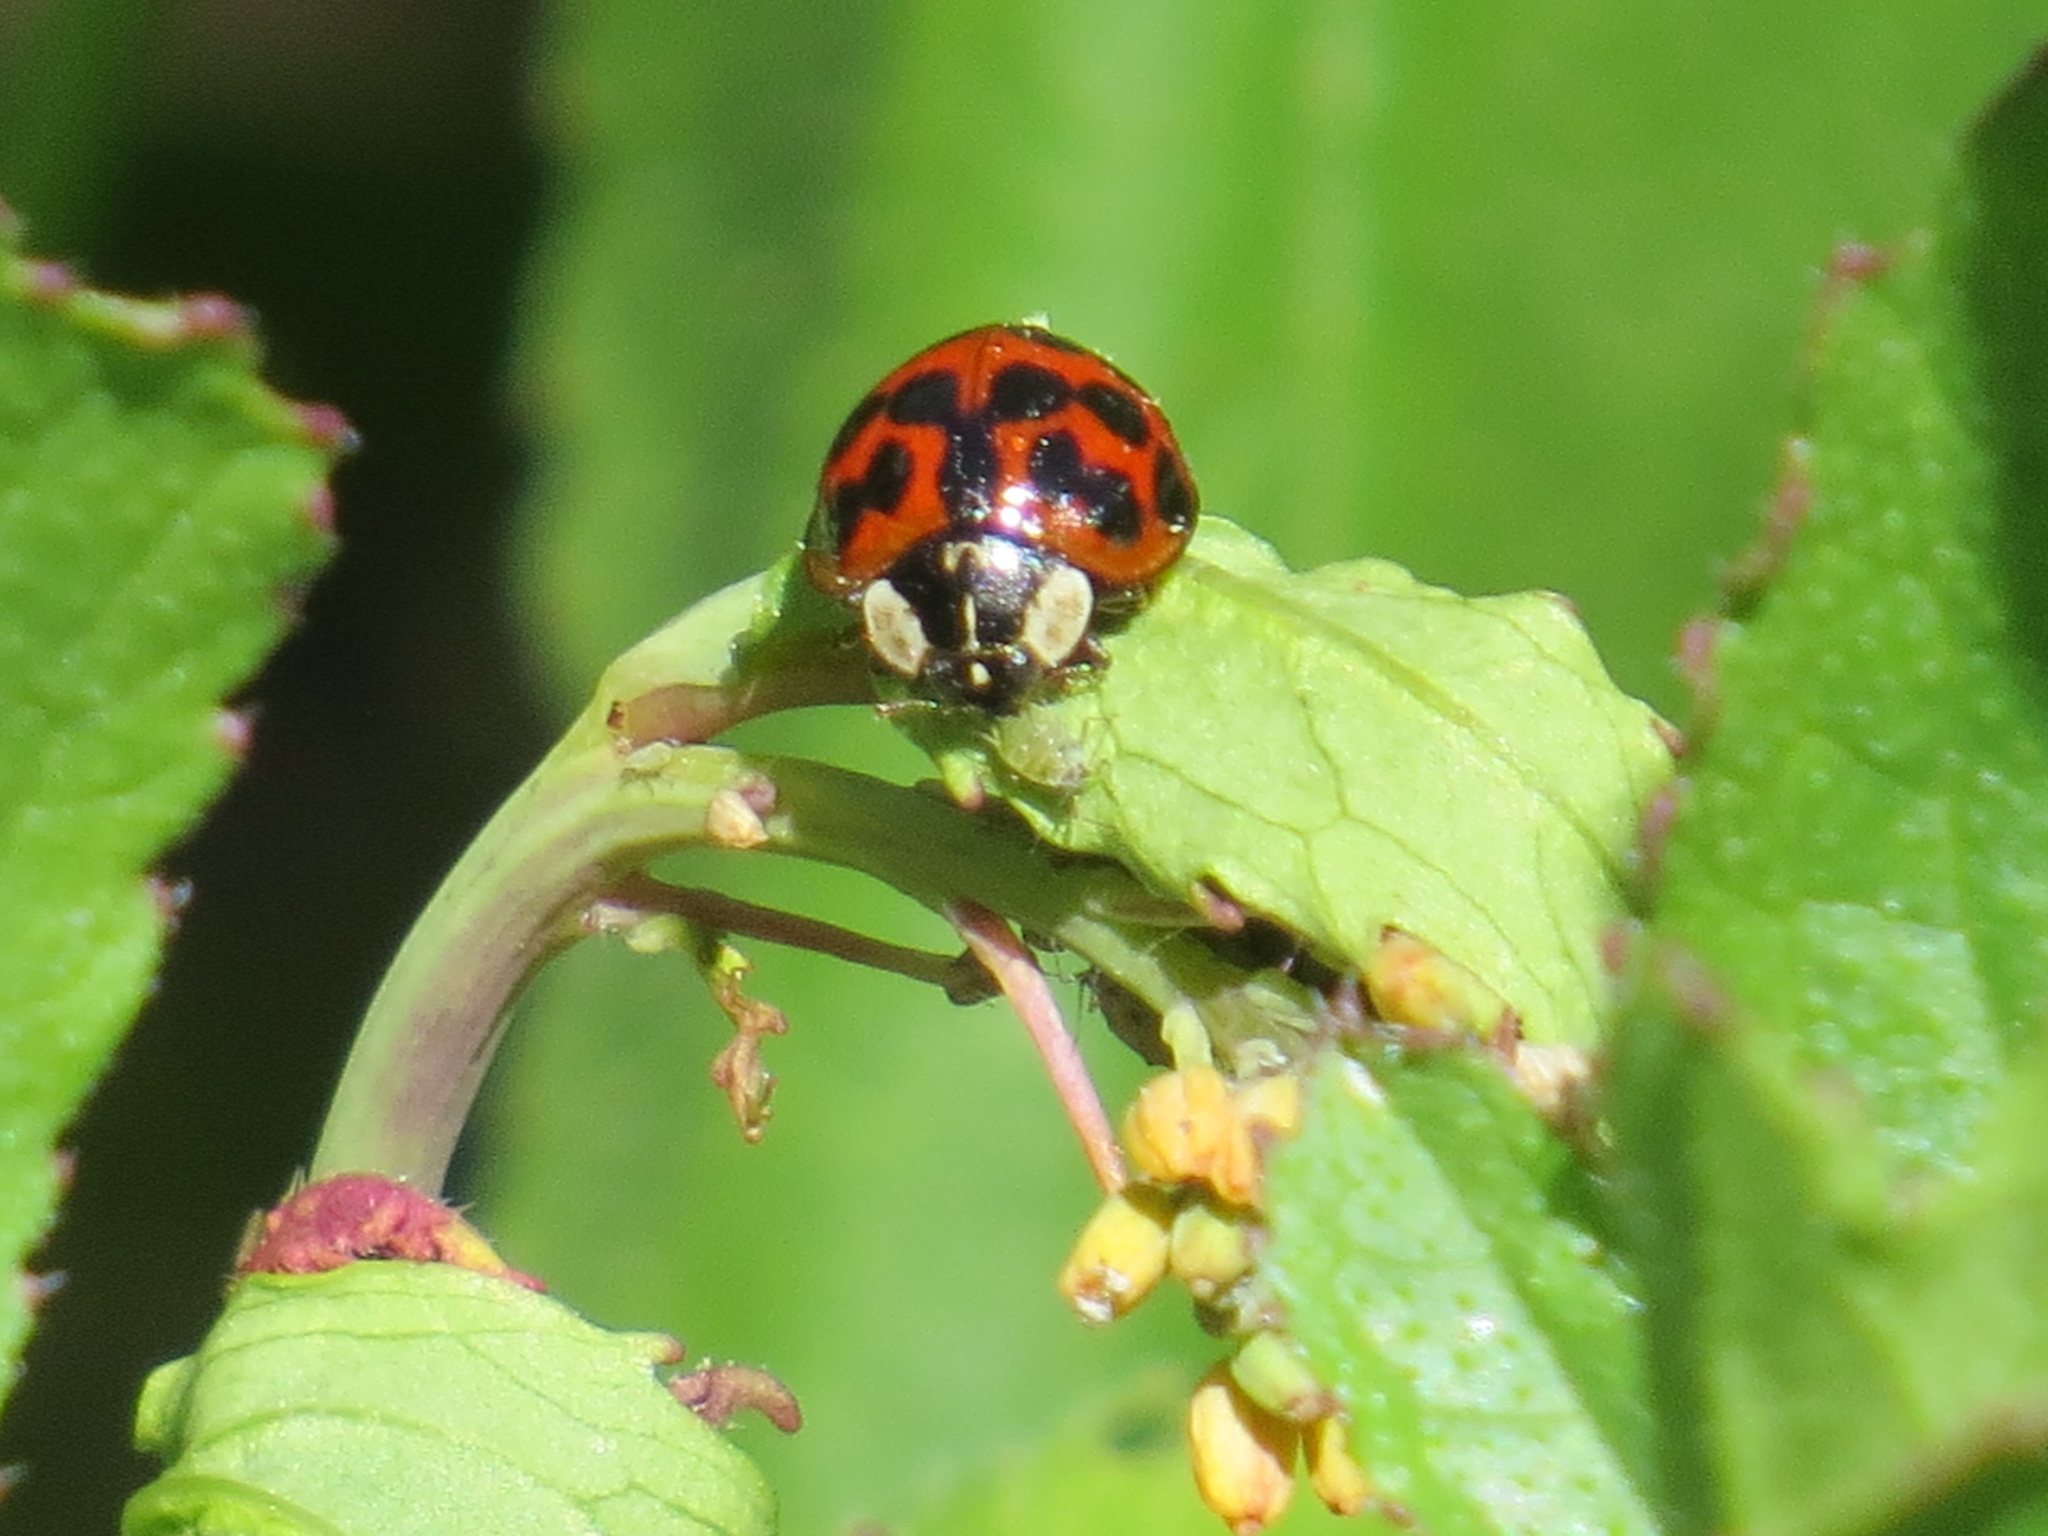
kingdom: Animalia
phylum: Arthropoda
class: Insecta
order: Coleoptera
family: Coccinellidae
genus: Harmonia
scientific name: Harmonia axyridis
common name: Harlequin ladybird
